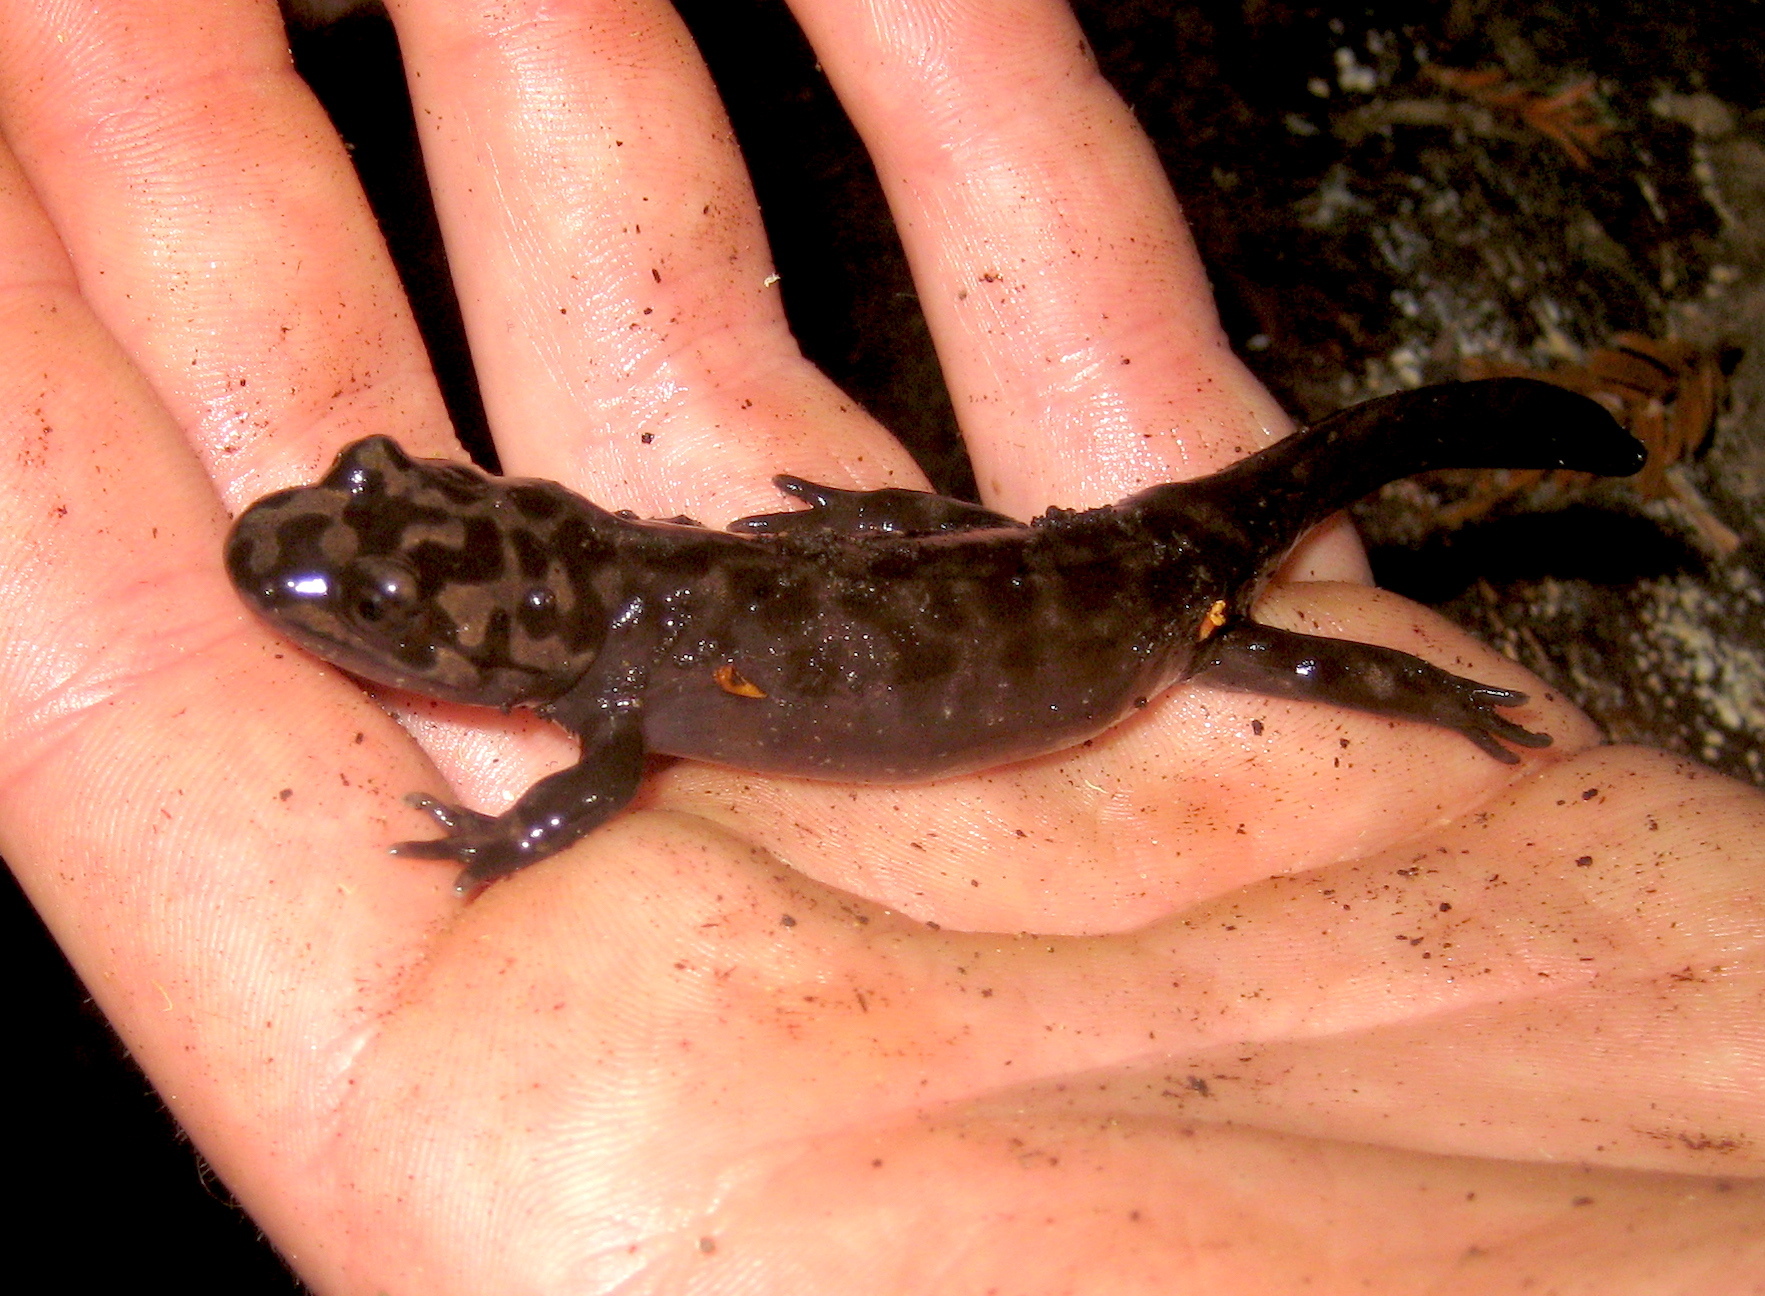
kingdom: Animalia
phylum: Chordata
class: Amphibia
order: Caudata
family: Ambystomatidae
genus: Dicamptodon
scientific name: Dicamptodon ensatus
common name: California giant salamander
